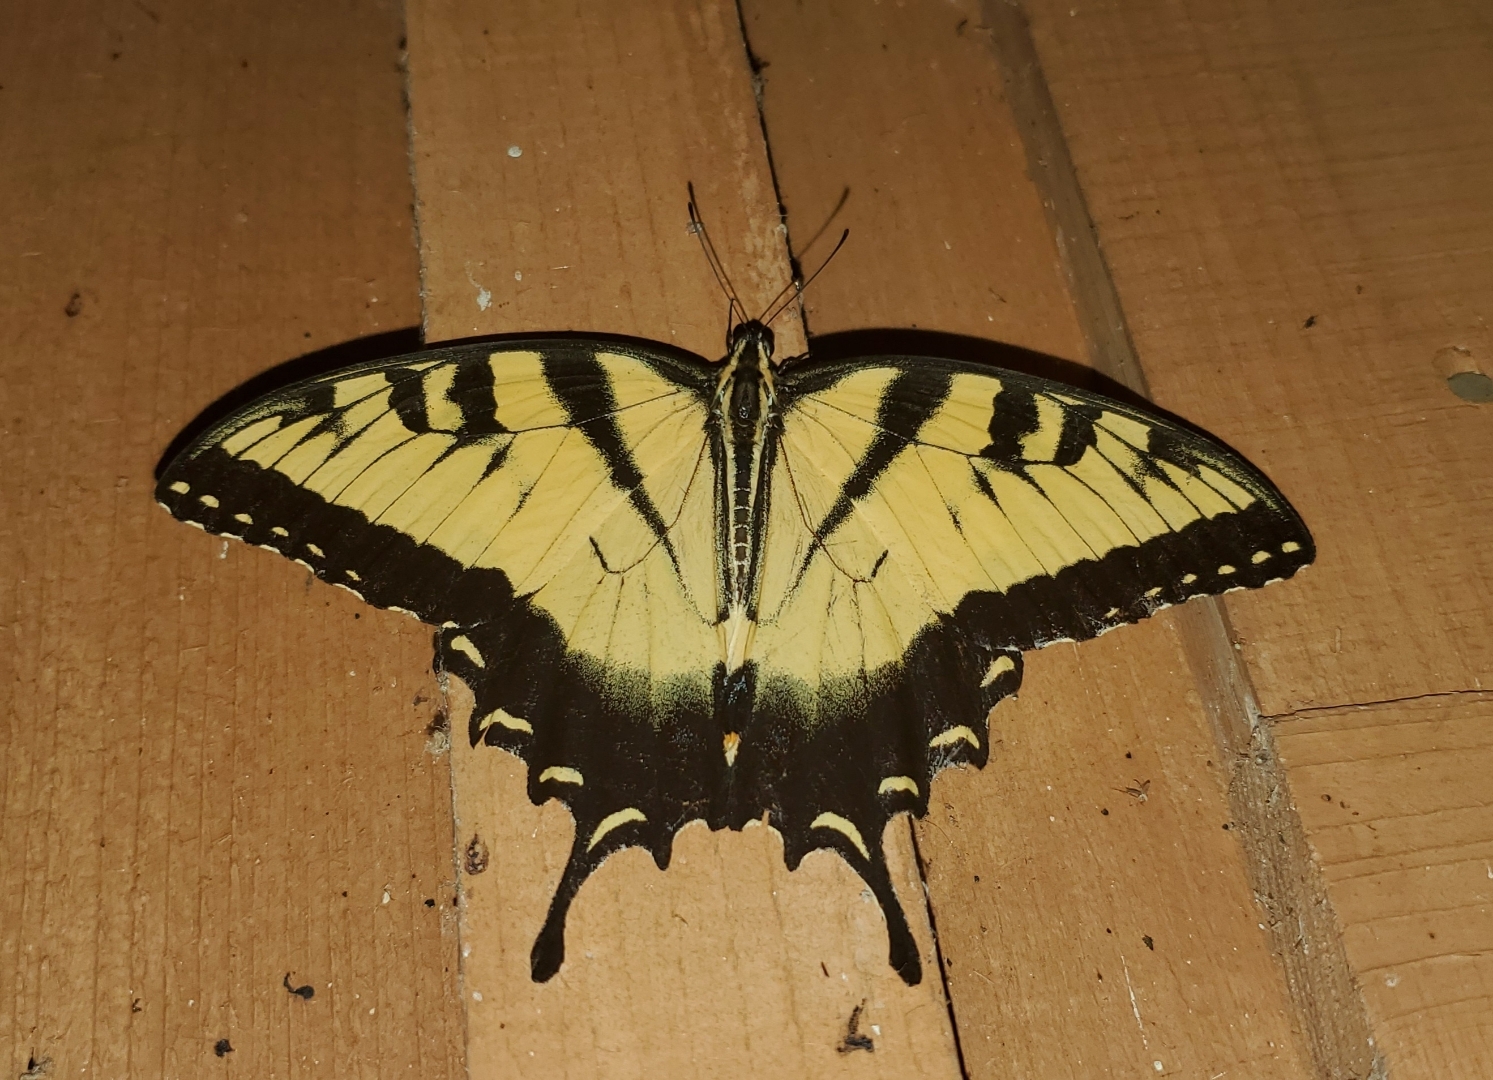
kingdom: Animalia
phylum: Arthropoda
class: Insecta
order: Lepidoptera
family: Papilionidae
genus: Papilio
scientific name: Papilio glaucus
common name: Tiger swallowtail
